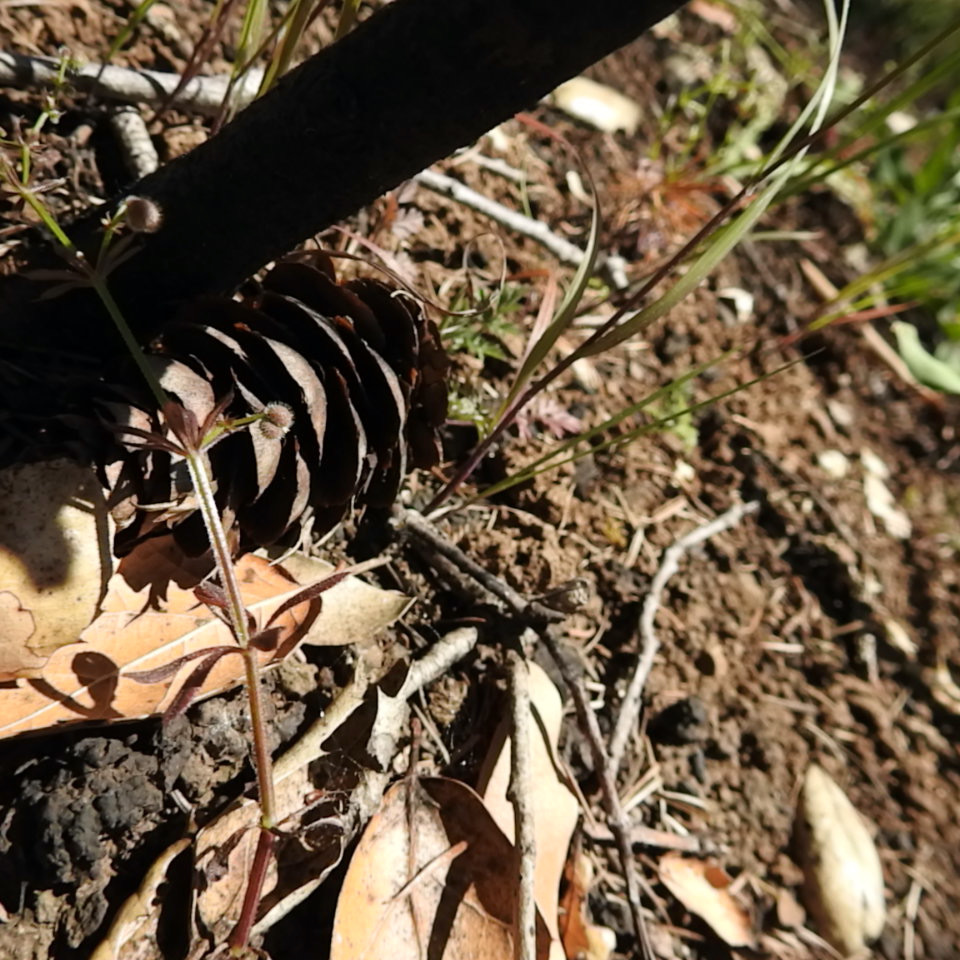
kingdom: Plantae
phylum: Tracheophyta
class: Pinopsida
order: Pinales
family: Pinaceae
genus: Pseudotsuga
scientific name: Pseudotsuga menziesii
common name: Douglas fir
